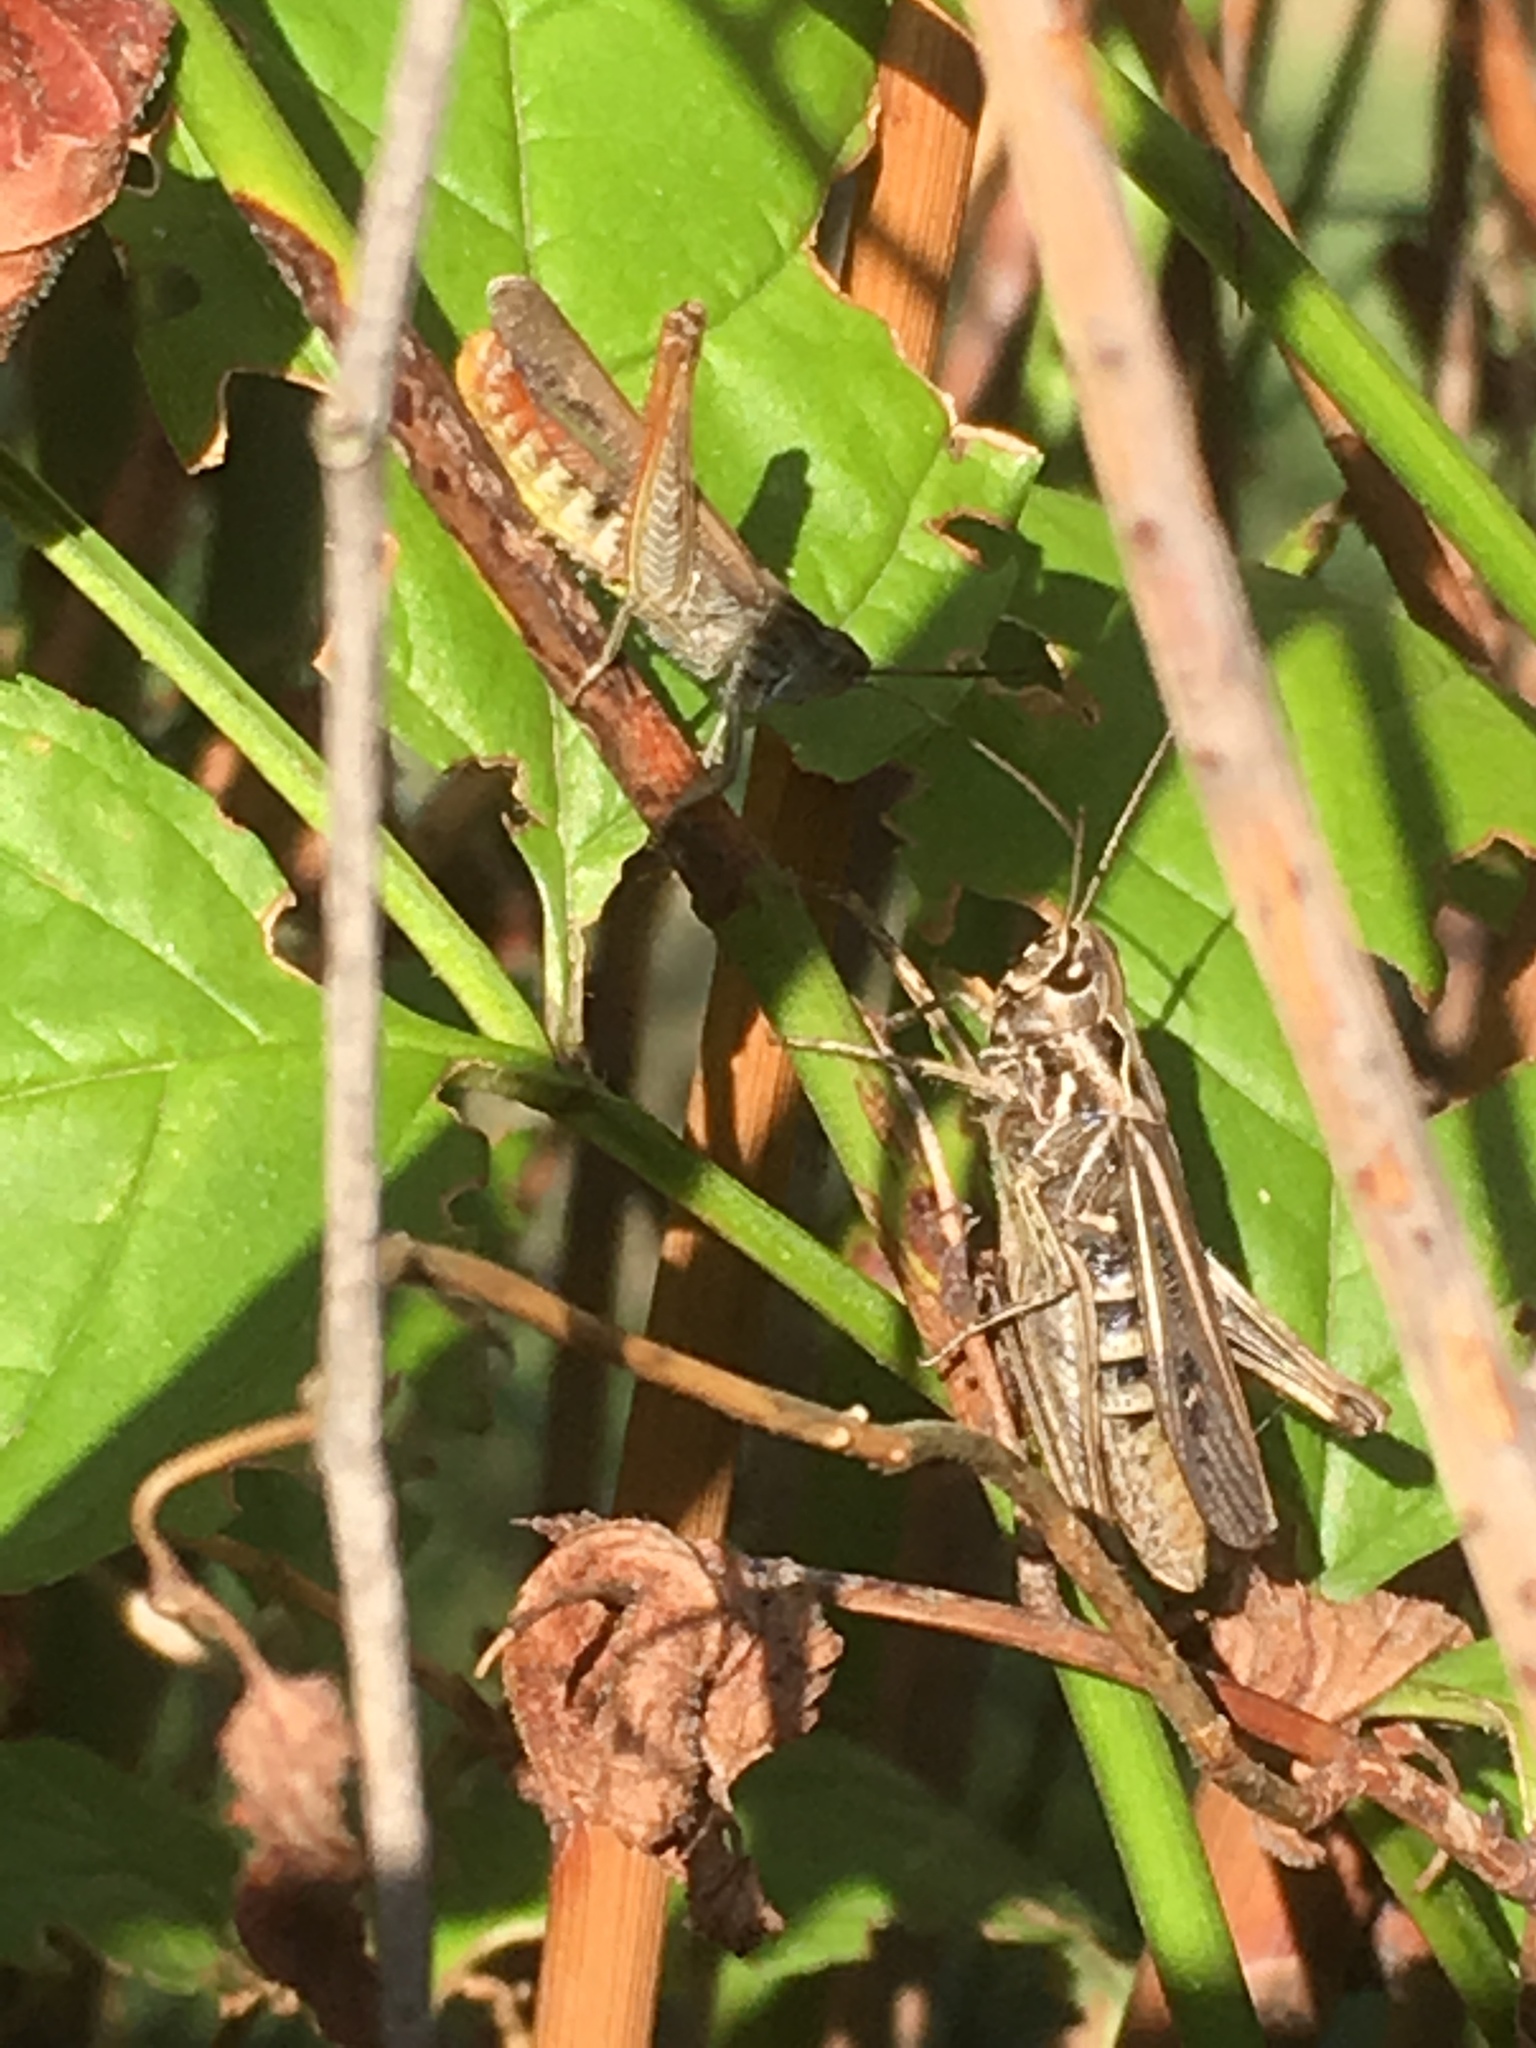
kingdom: Animalia
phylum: Arthropoda
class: Insecta
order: Orthoptera
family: Acrididae
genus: Chorthippus
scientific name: Chorthippus biguttulus
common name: Bow-winged grasshopper
